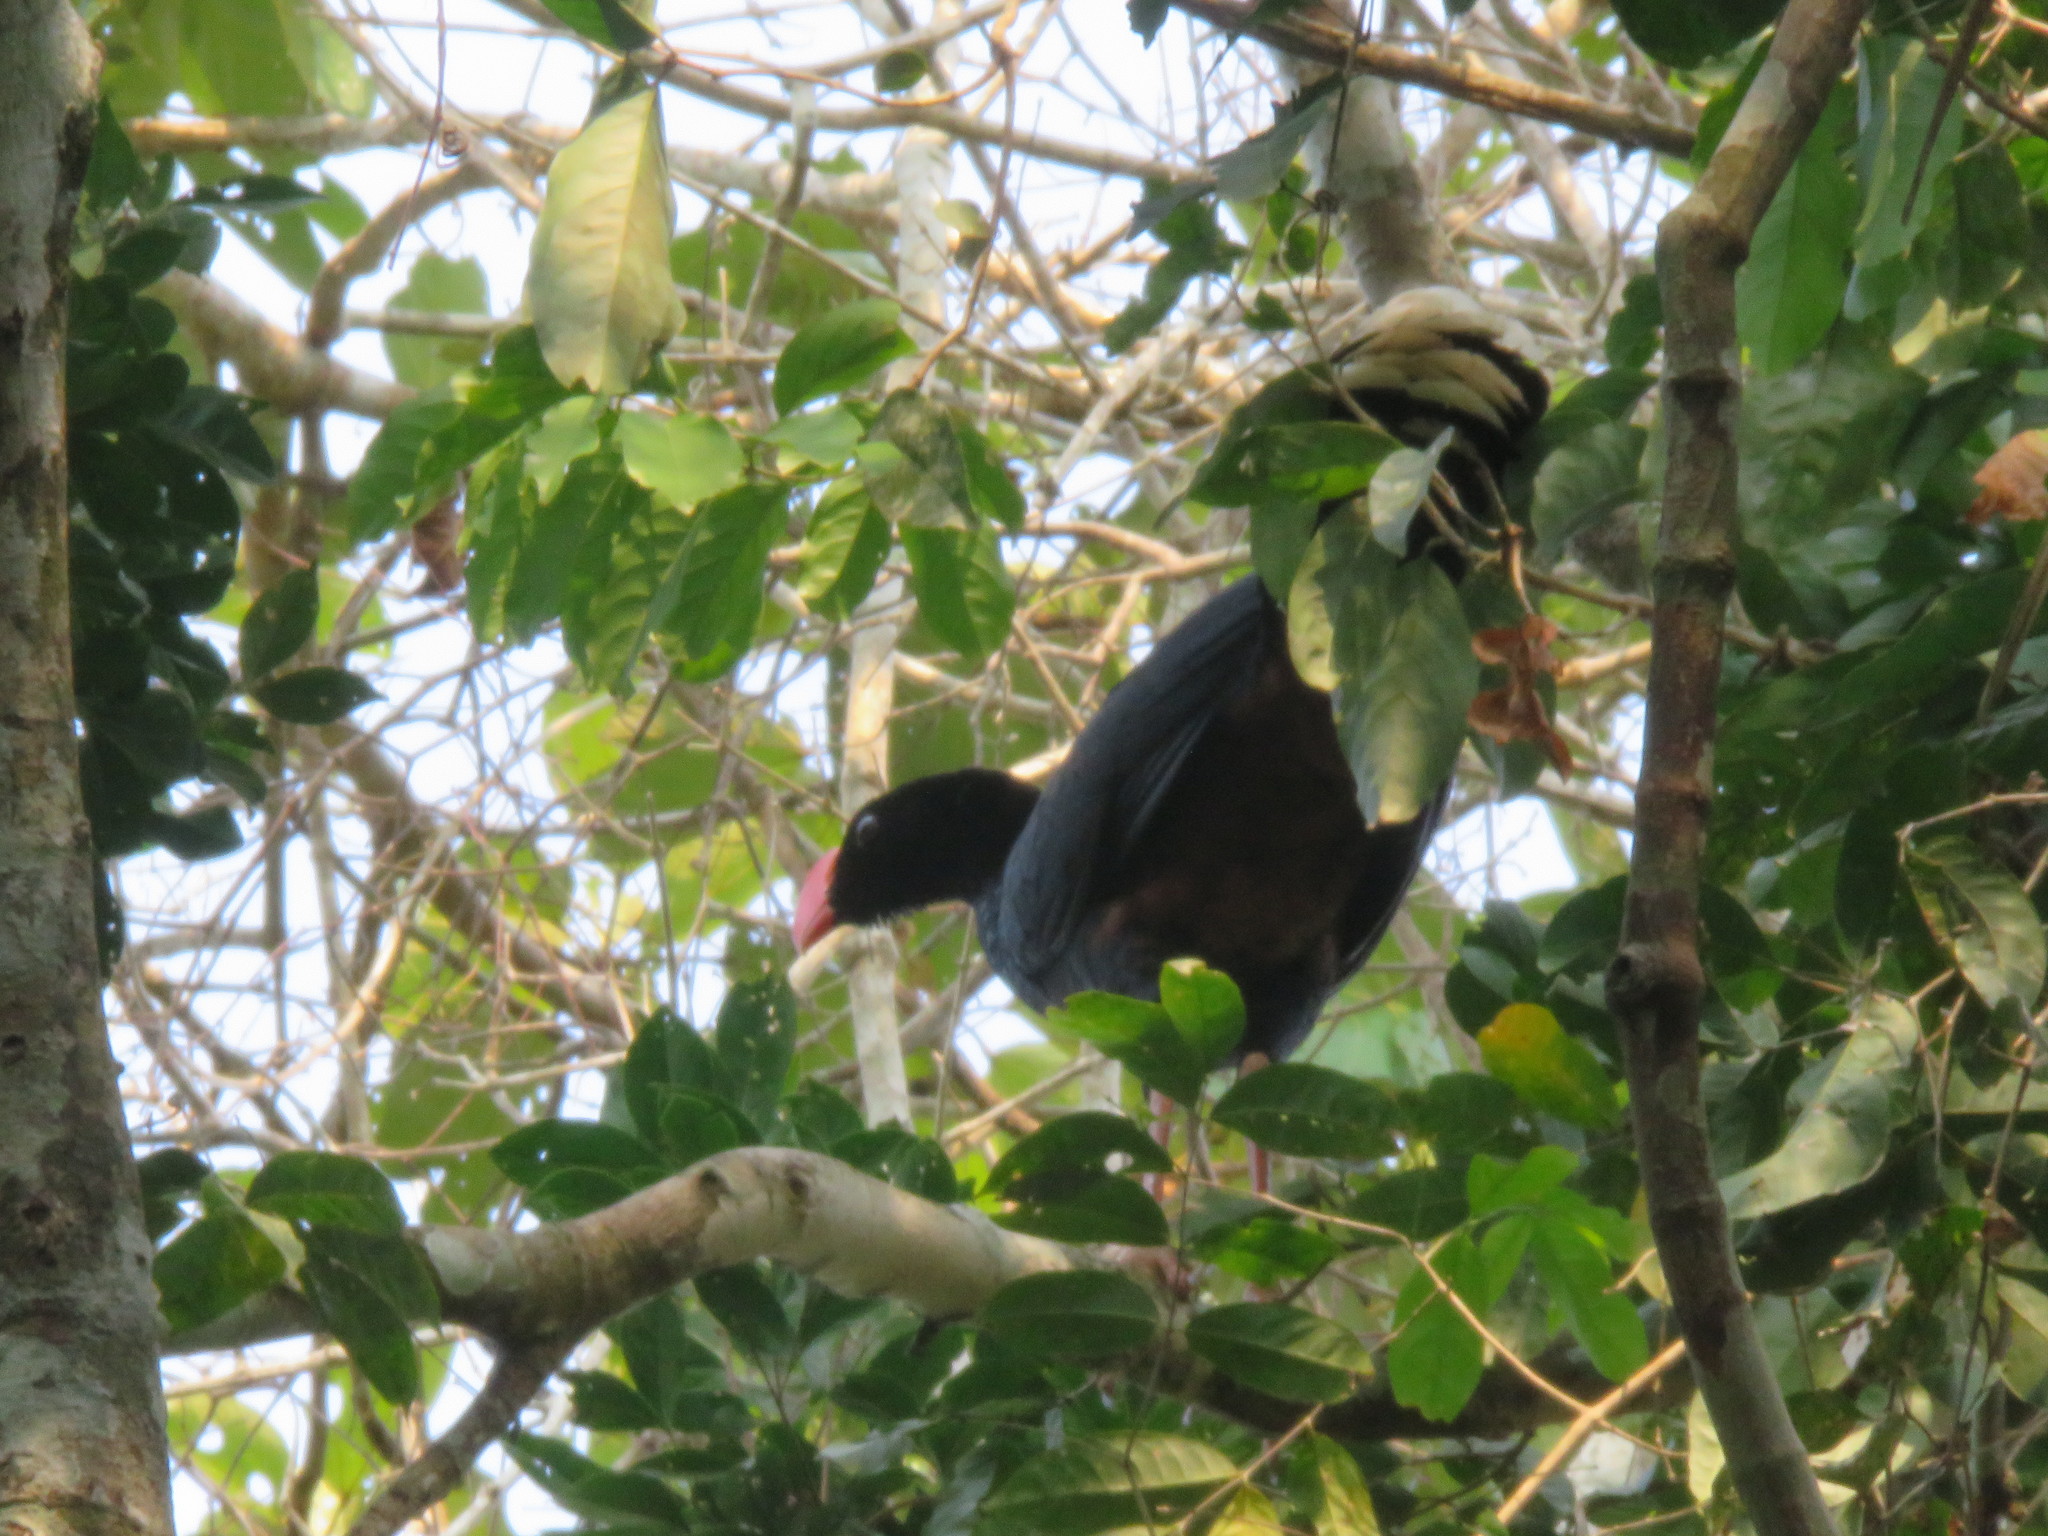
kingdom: Animalia
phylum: Chordata
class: Aves
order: Galliformes
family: Cracidae
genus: Mitu
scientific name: Mitu tuberosum
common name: Razor-billed curassow
